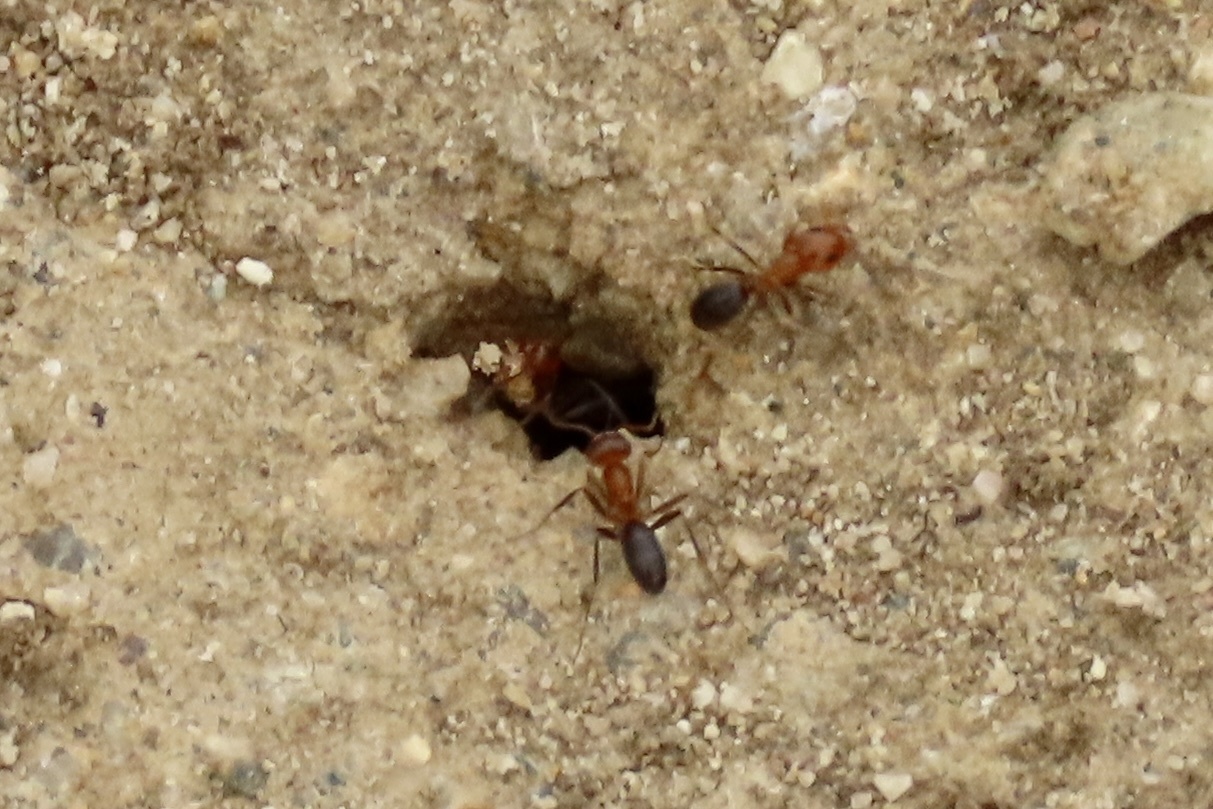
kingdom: Animalia
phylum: Arthropoda
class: Insecta
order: Hymenoptera
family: Formicidae
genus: Dorymyrmex
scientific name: Dorymyrmex bicolor
